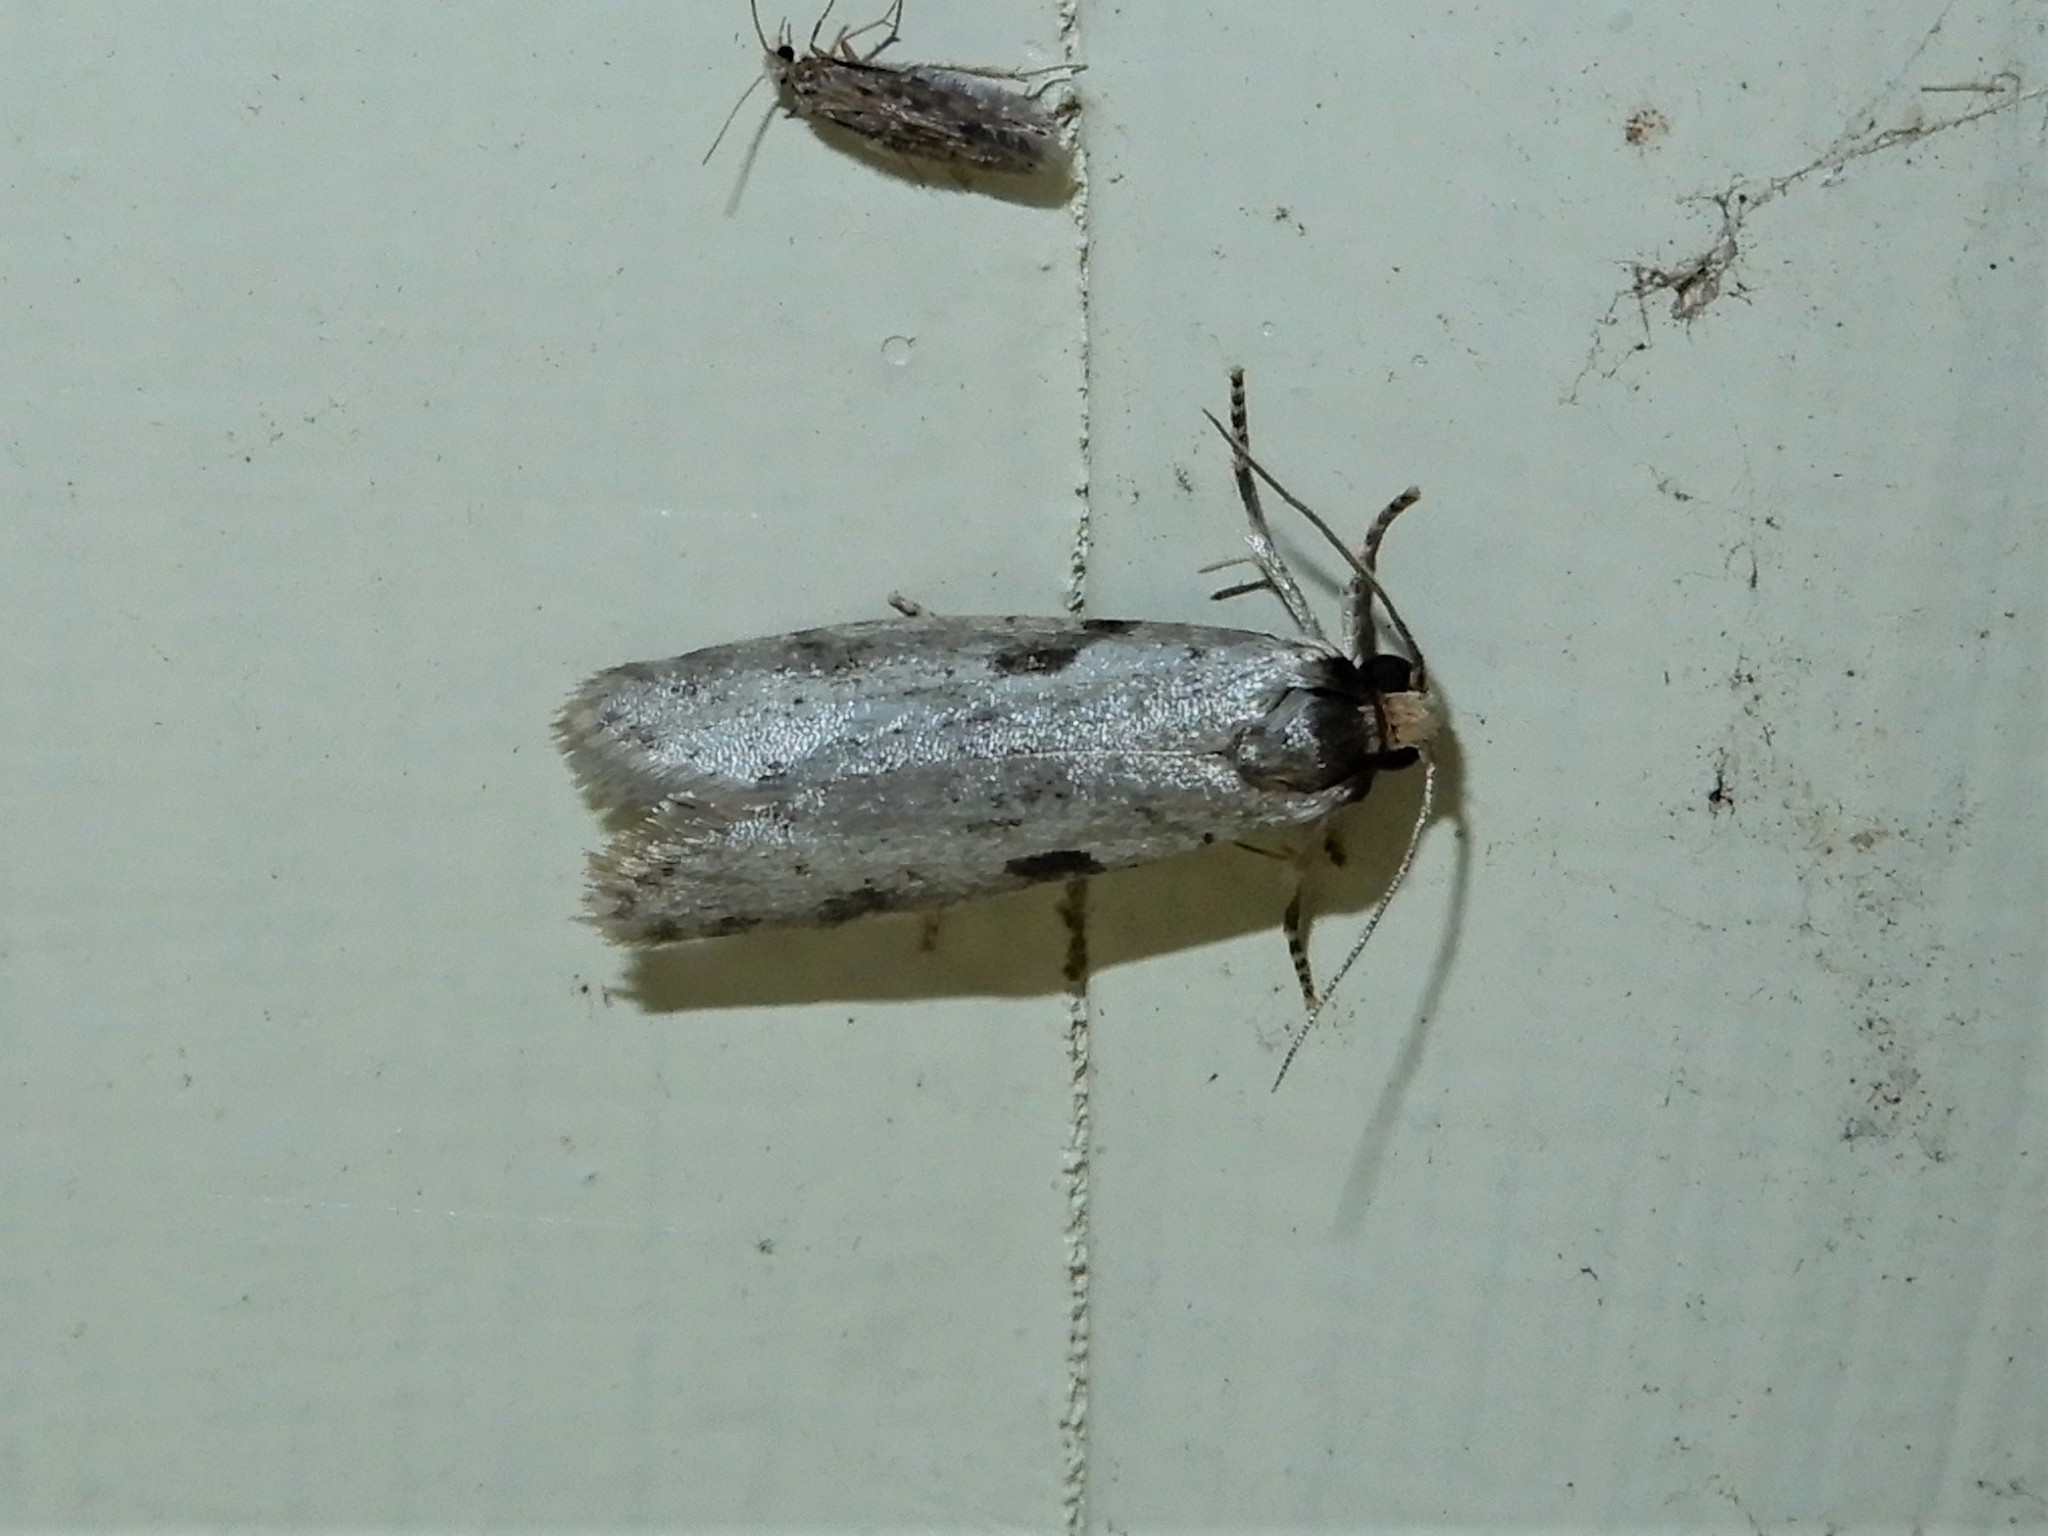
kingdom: Animalia
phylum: Arthropoda
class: Insecta
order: Lepidoptera
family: Psychidae
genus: Lepidoscia
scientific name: Lepidoscia protorna
